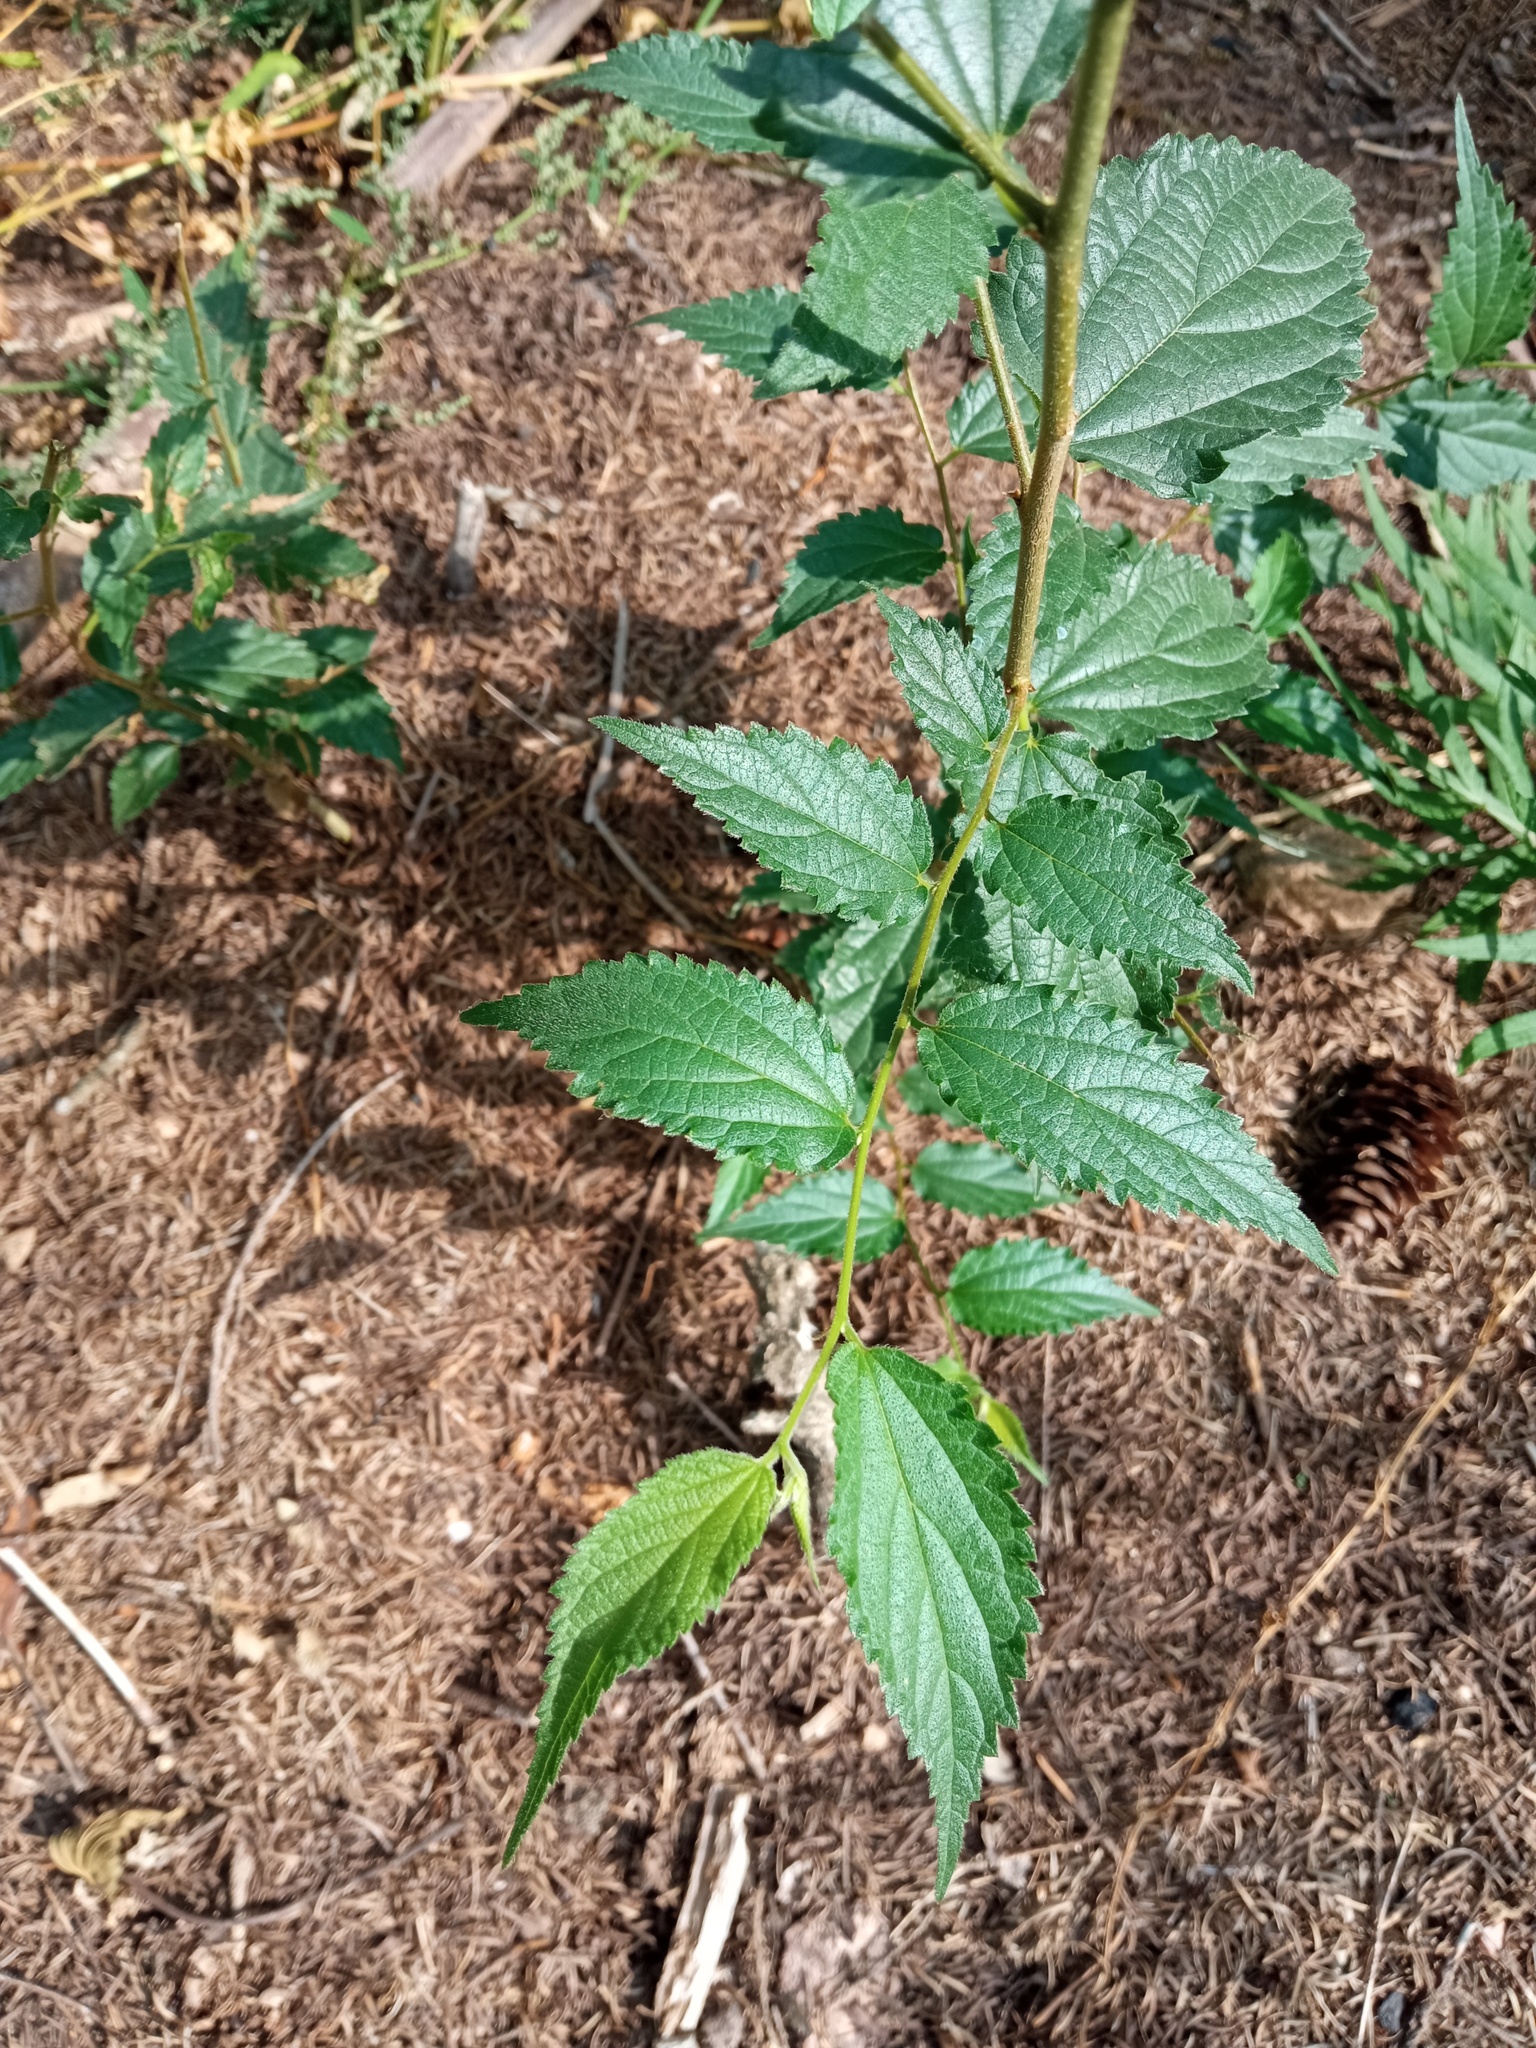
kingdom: Plantae
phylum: Tracheophyta
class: Magnoliopsida
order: Rosales
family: Cannabaceae
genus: Celtis
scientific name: Celtis australis
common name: European hackberry
